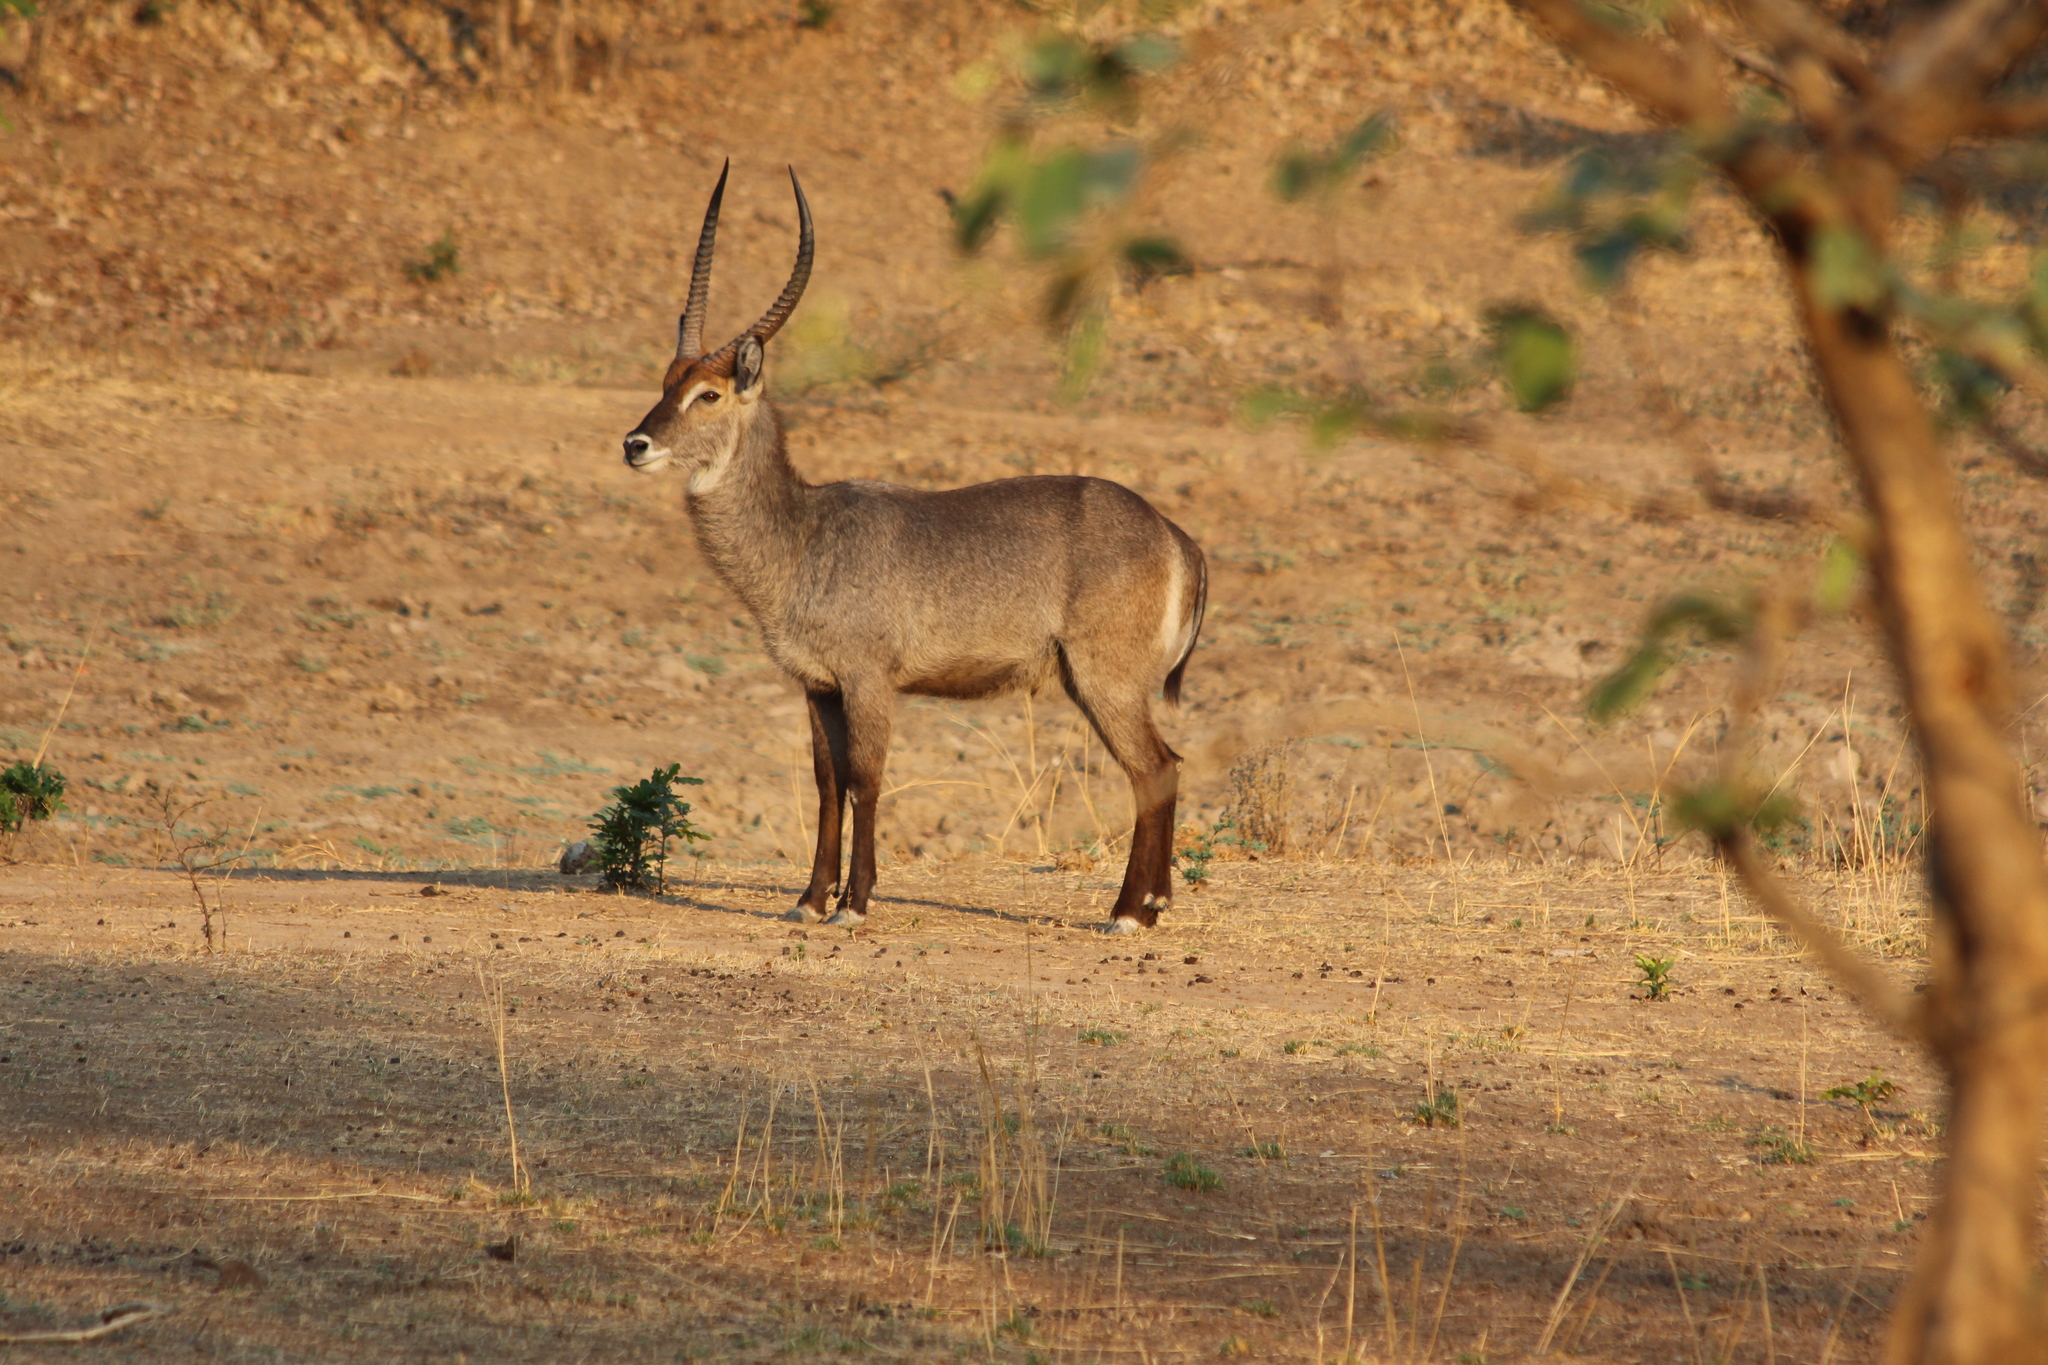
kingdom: Animalia
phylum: Chordata
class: Mammalia
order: Artiodactyla
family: Bovidae
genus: Kobus
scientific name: Kobus ellipsiprymnus
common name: Waterbuck
